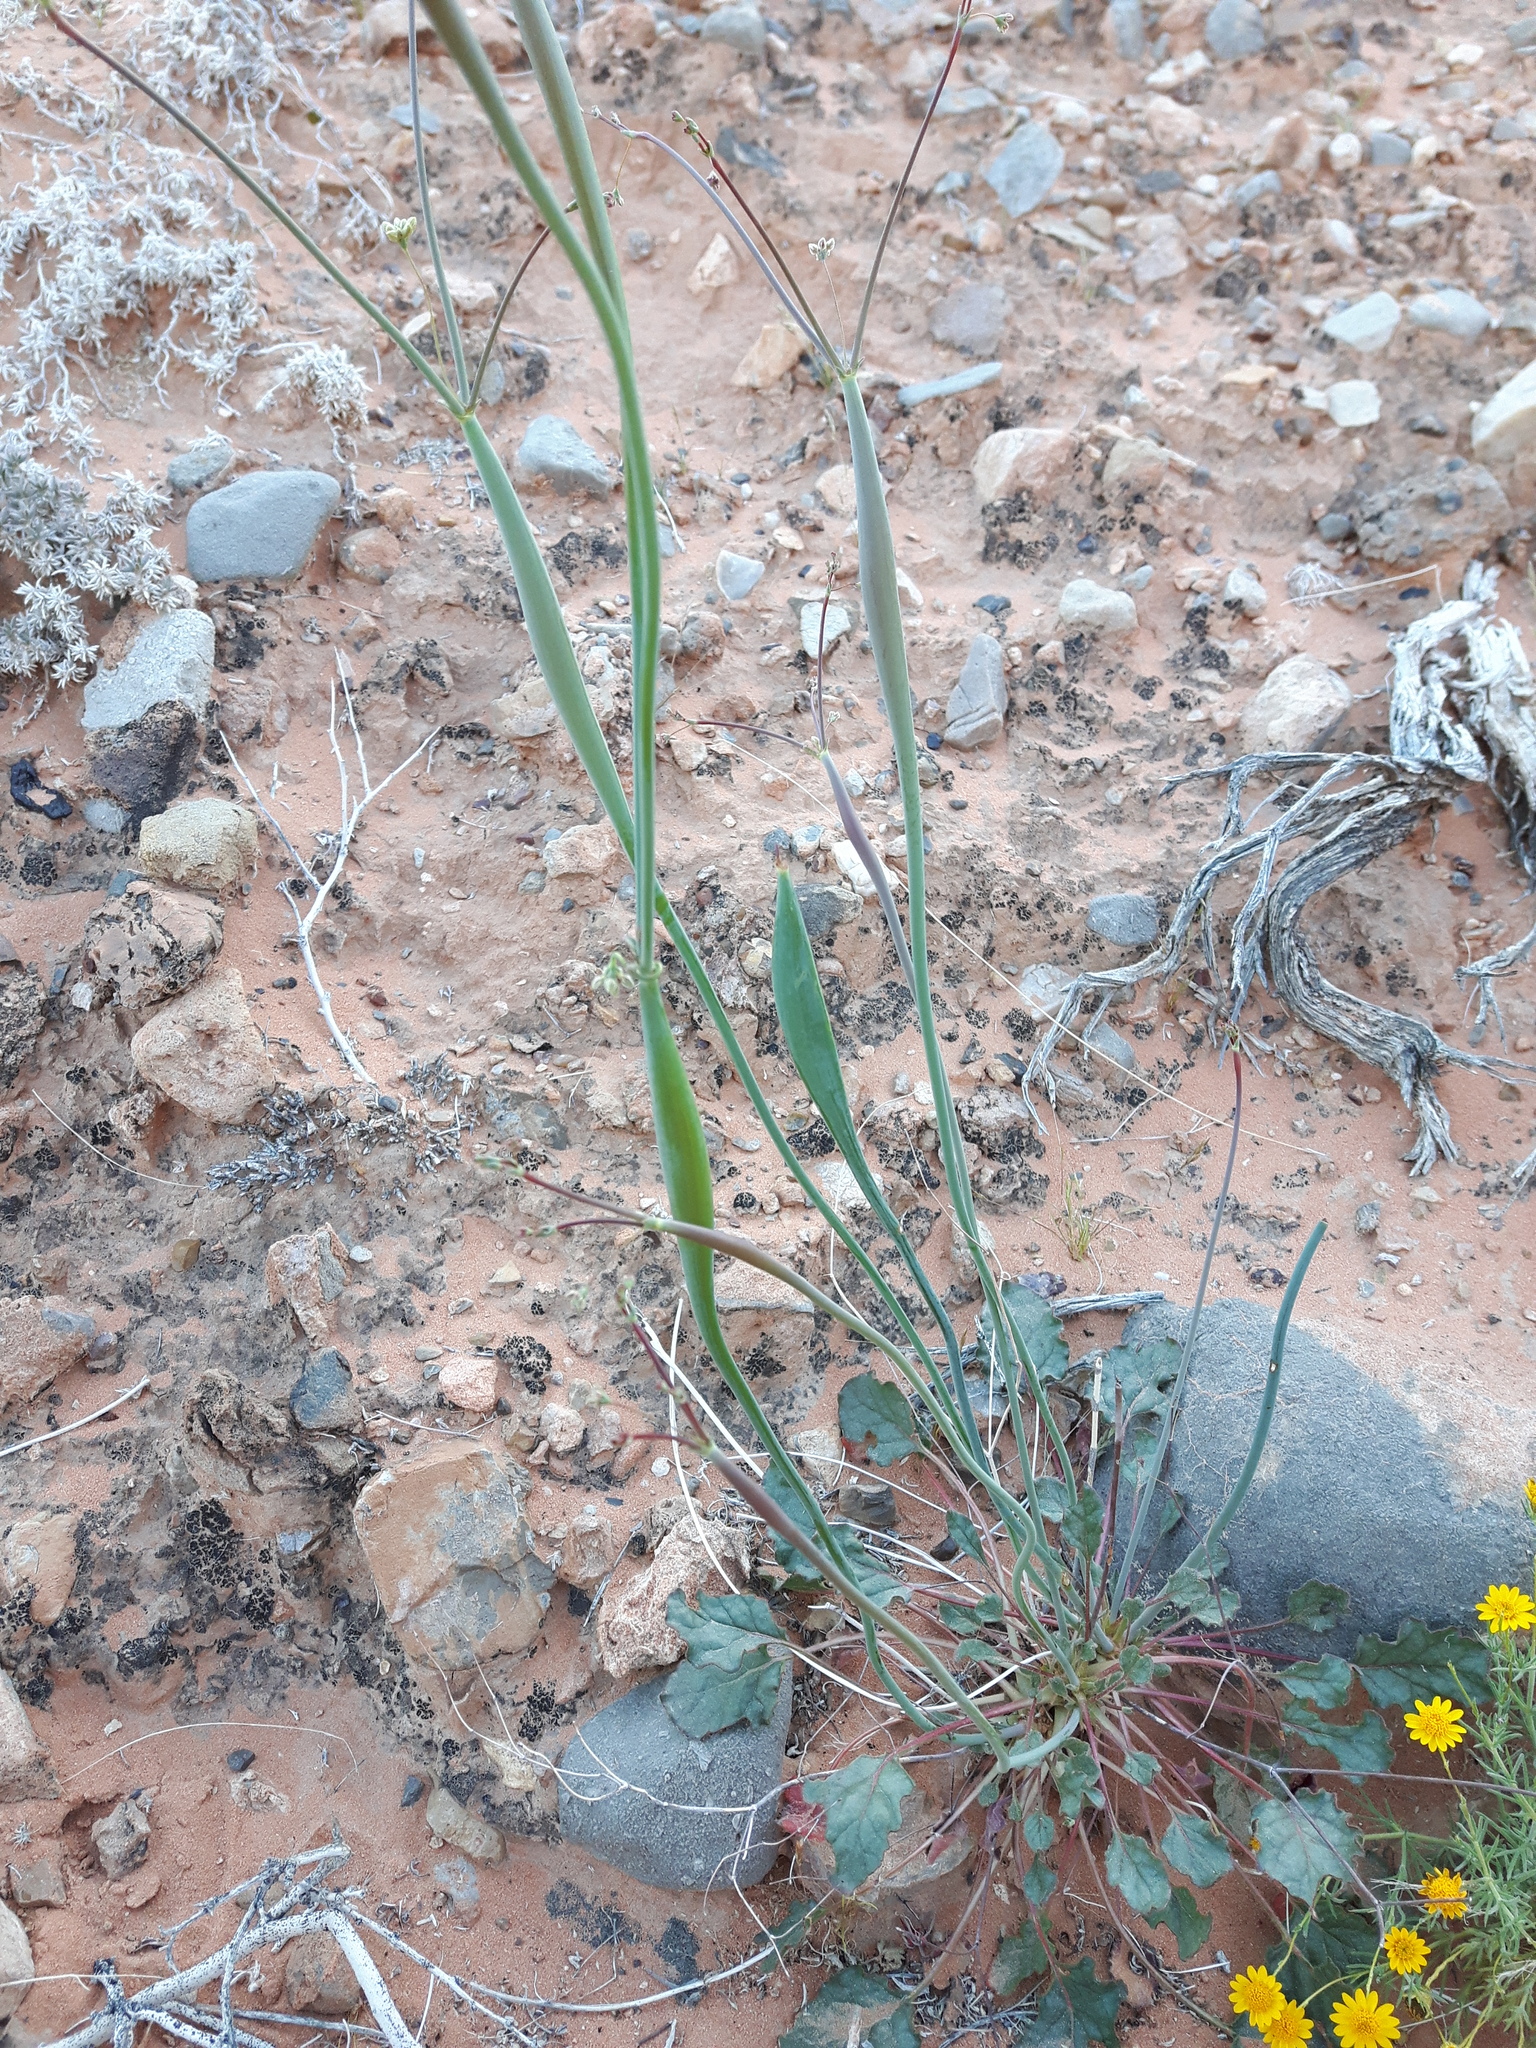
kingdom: Plantae
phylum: Tracheophyta
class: Magnoliopsida
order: Caryophyllales
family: Polygonaceae
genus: Eriogonum
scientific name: Eriogonum inflatum
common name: Desert trumpet
